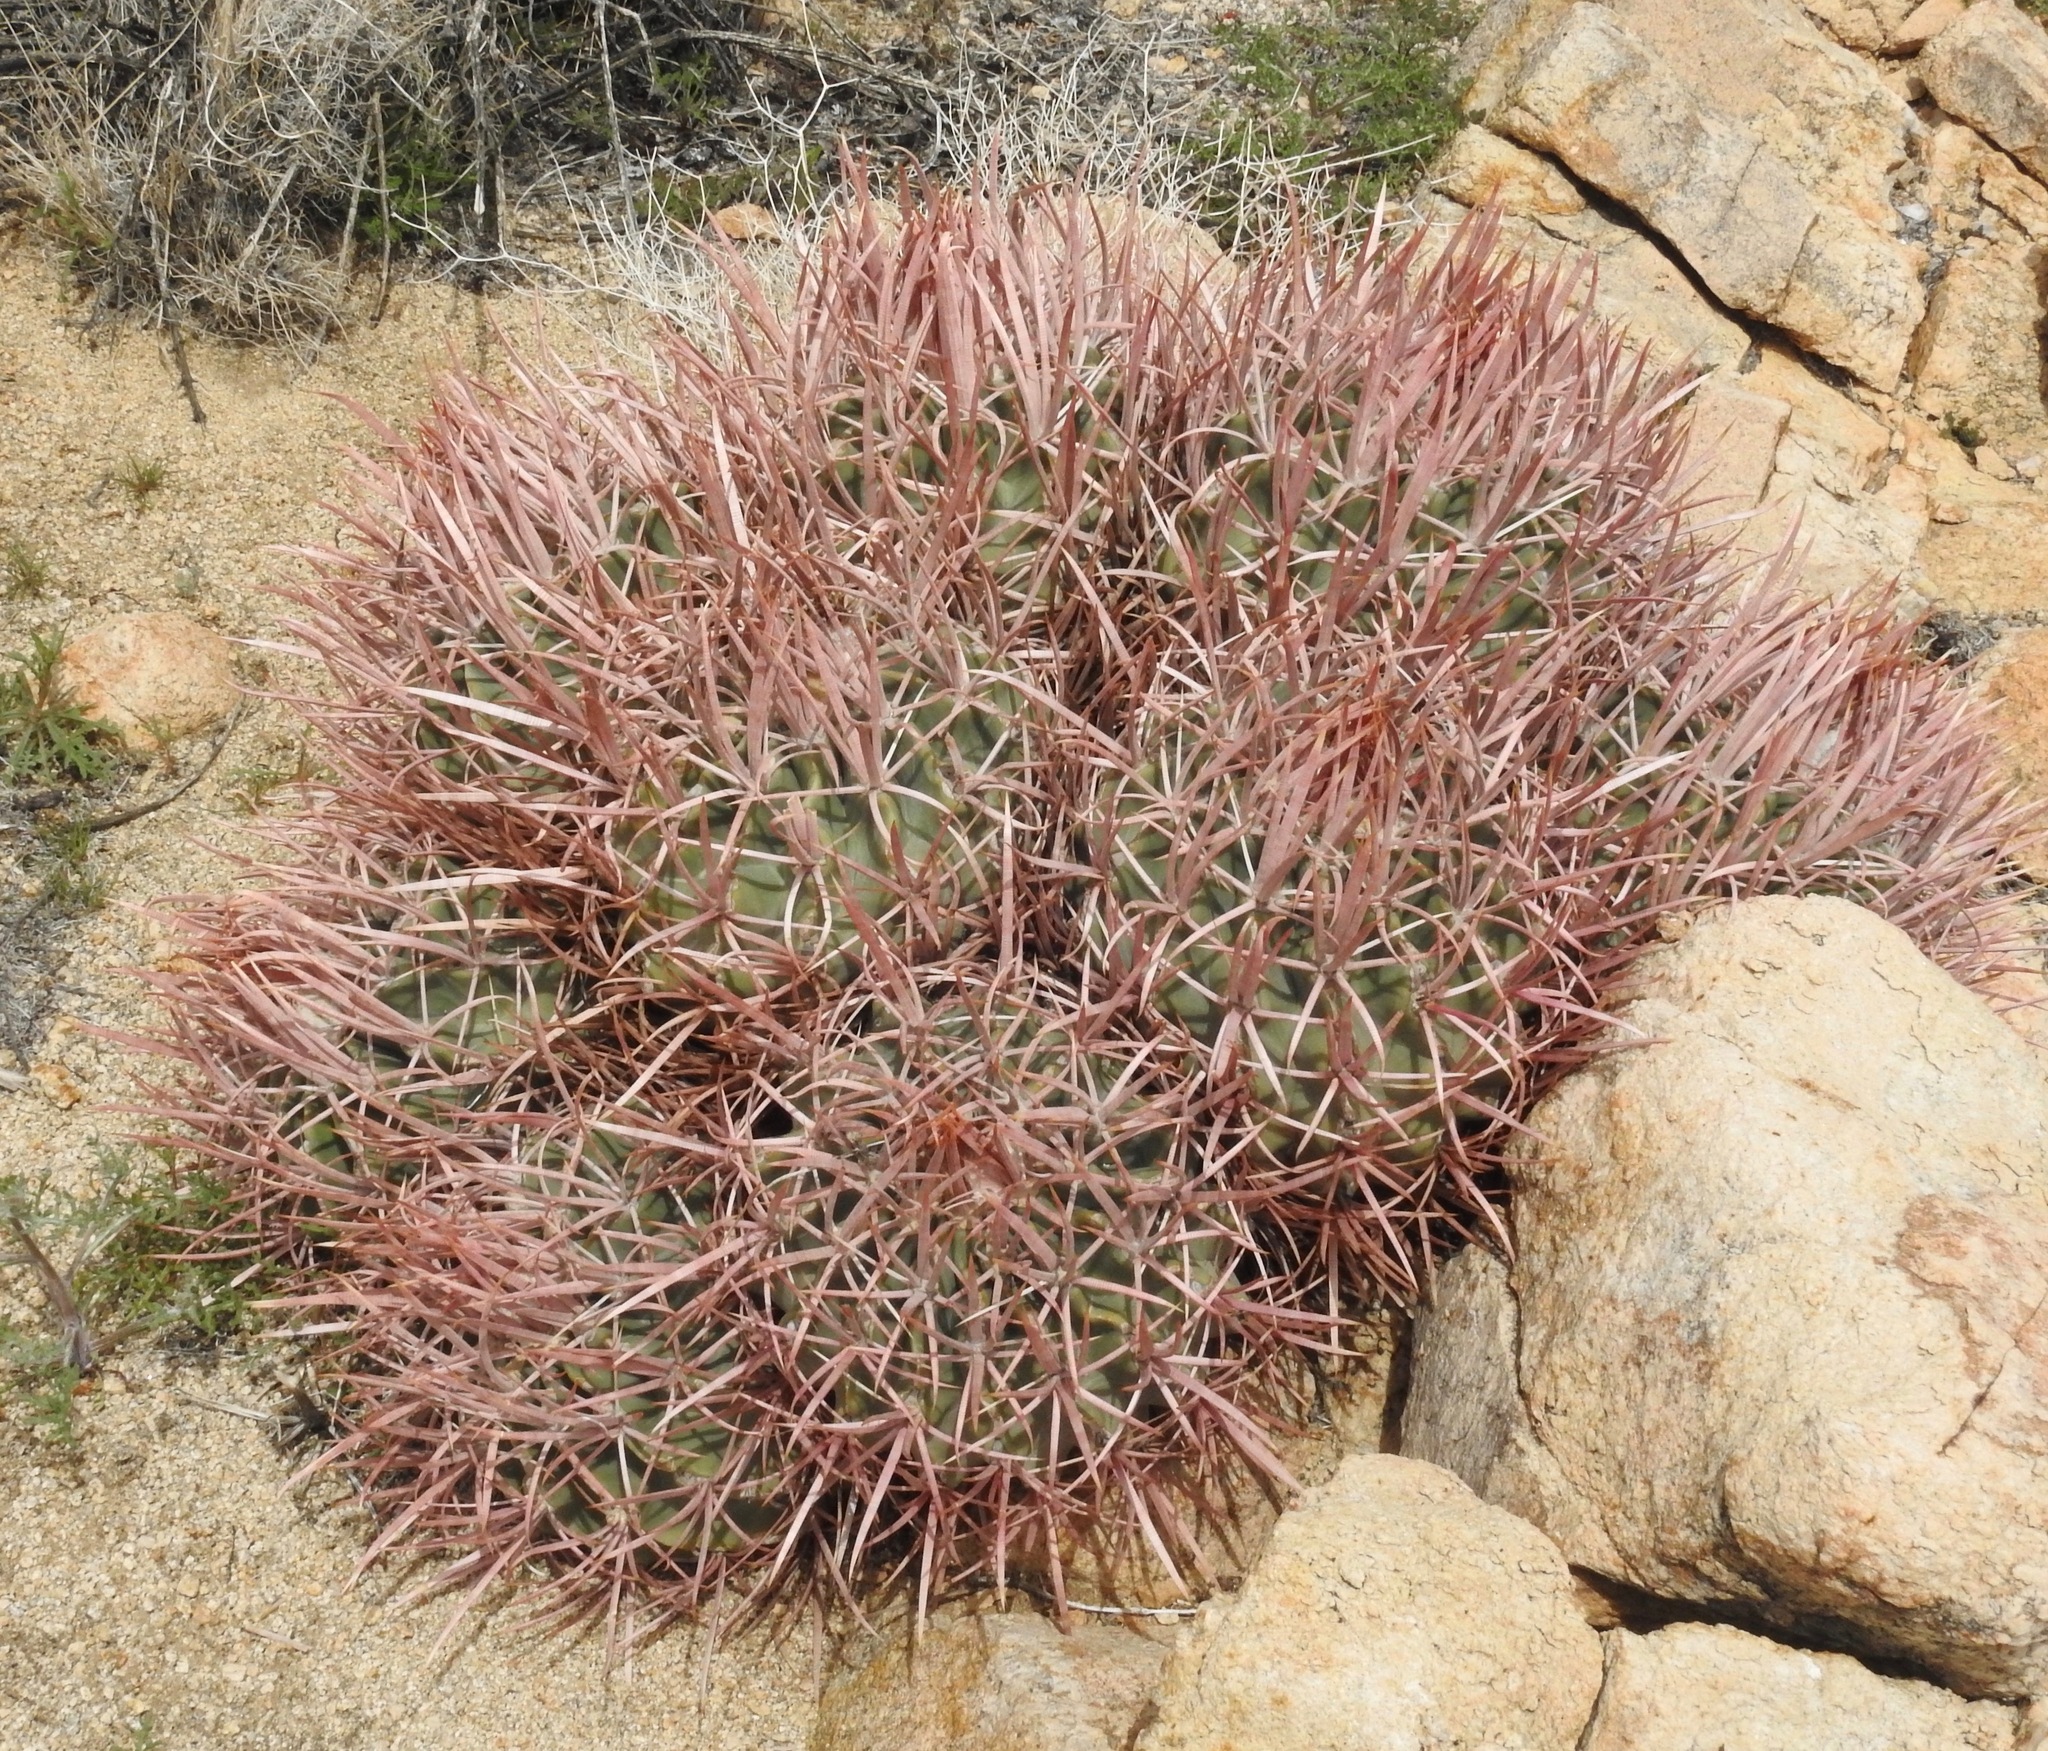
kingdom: Plantae
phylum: Tracheophyta
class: Magnoliopsida
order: Caryophyllales
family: Cactaceae
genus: Echinocactus
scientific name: Echinocactus polycephalus
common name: Cottontop cactus
